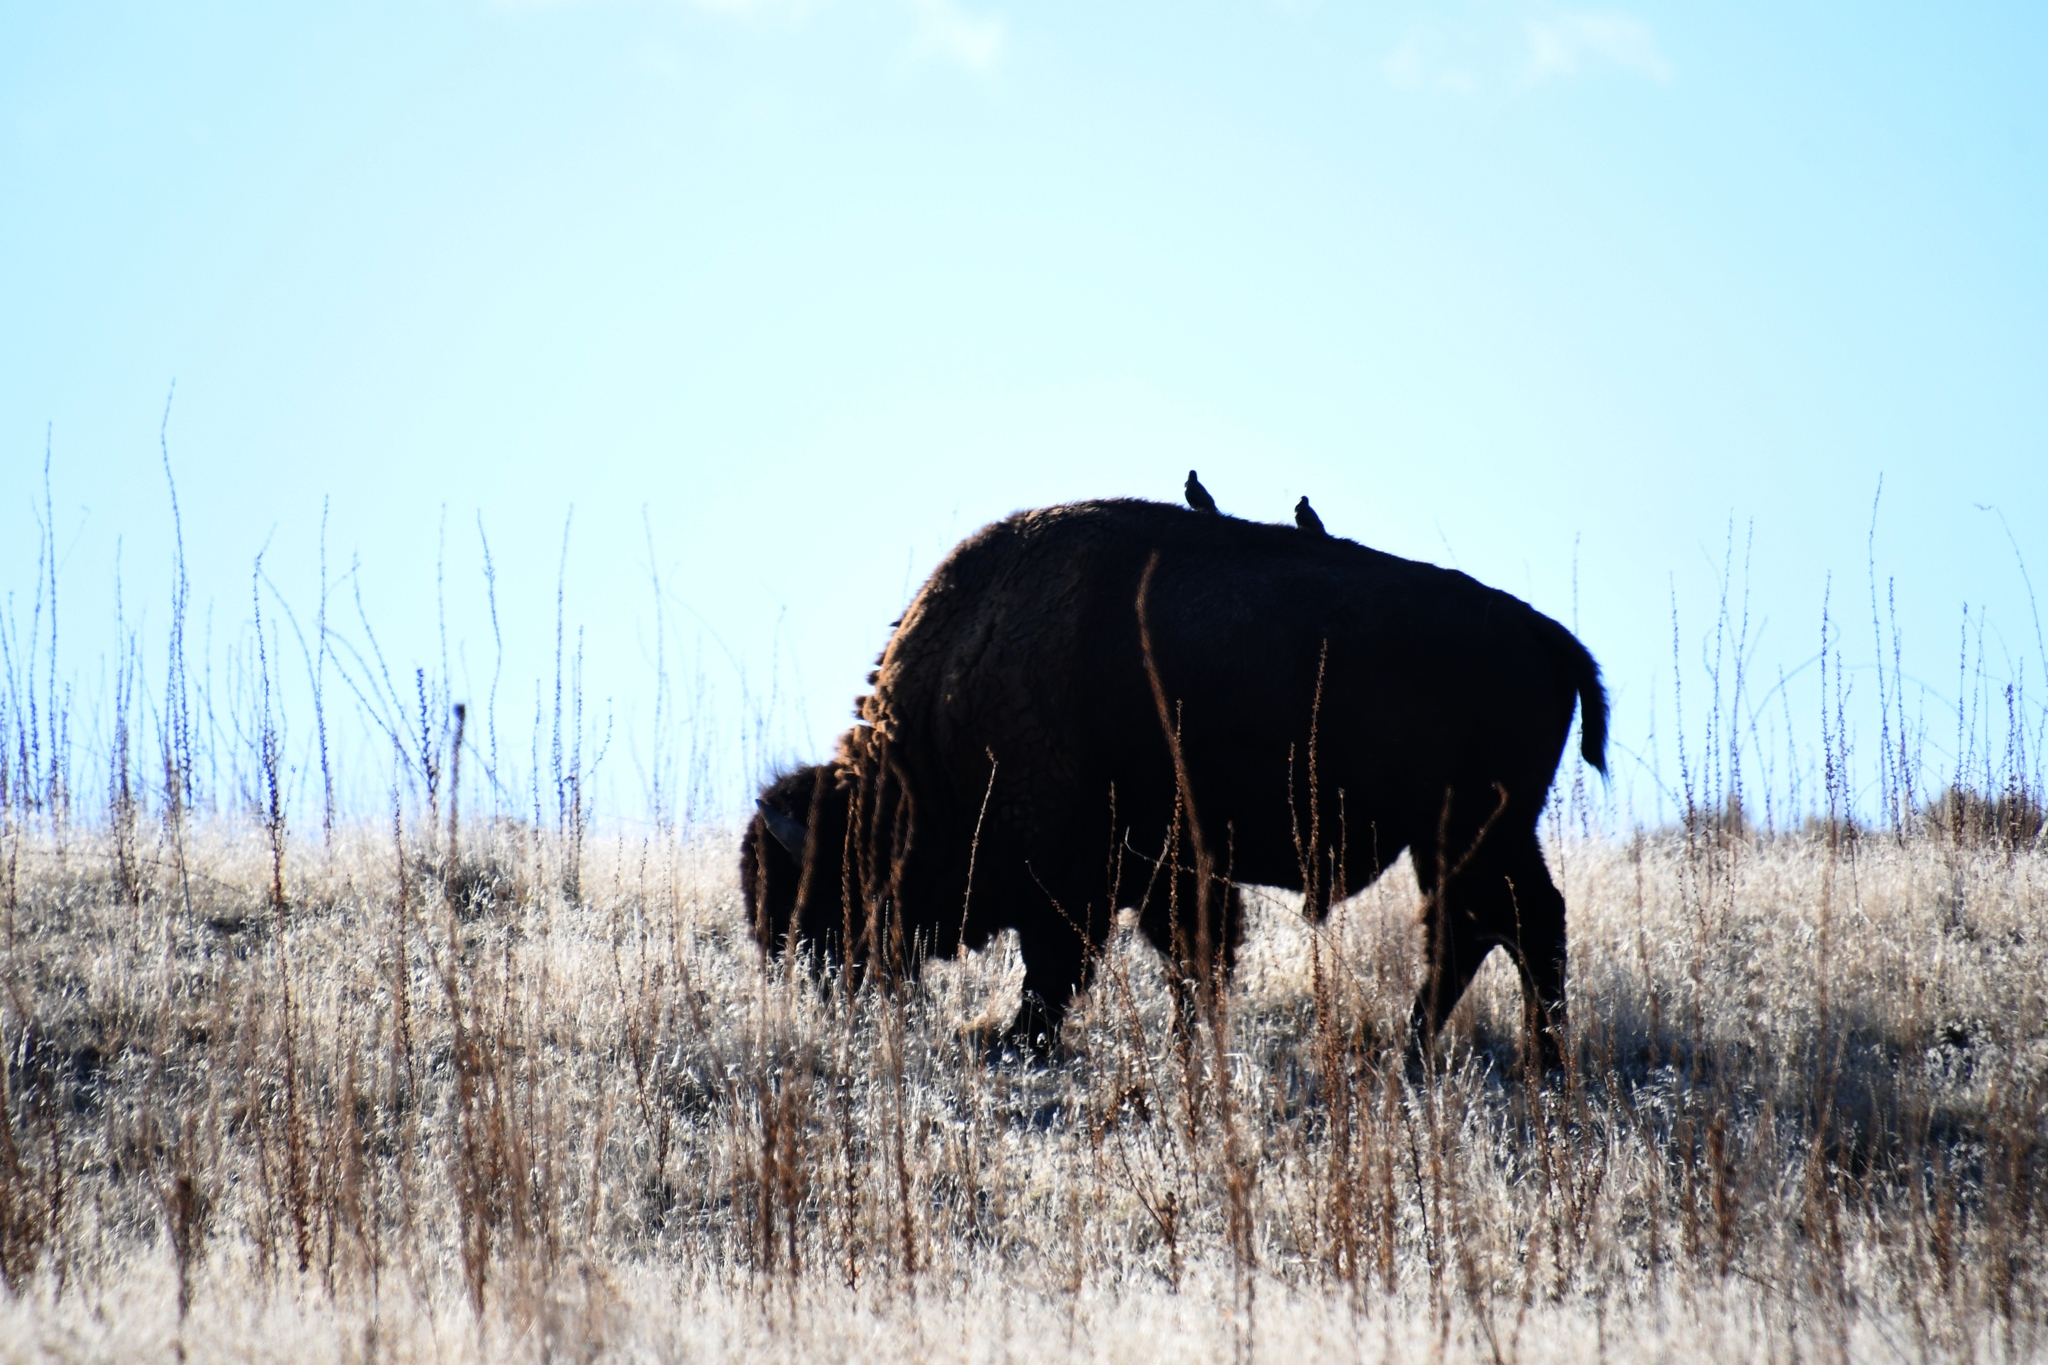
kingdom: Animalia
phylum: Chordata
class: Mammalia
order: Artiodactyla
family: Bovidae
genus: Bison
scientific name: Bison bison
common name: American bison
